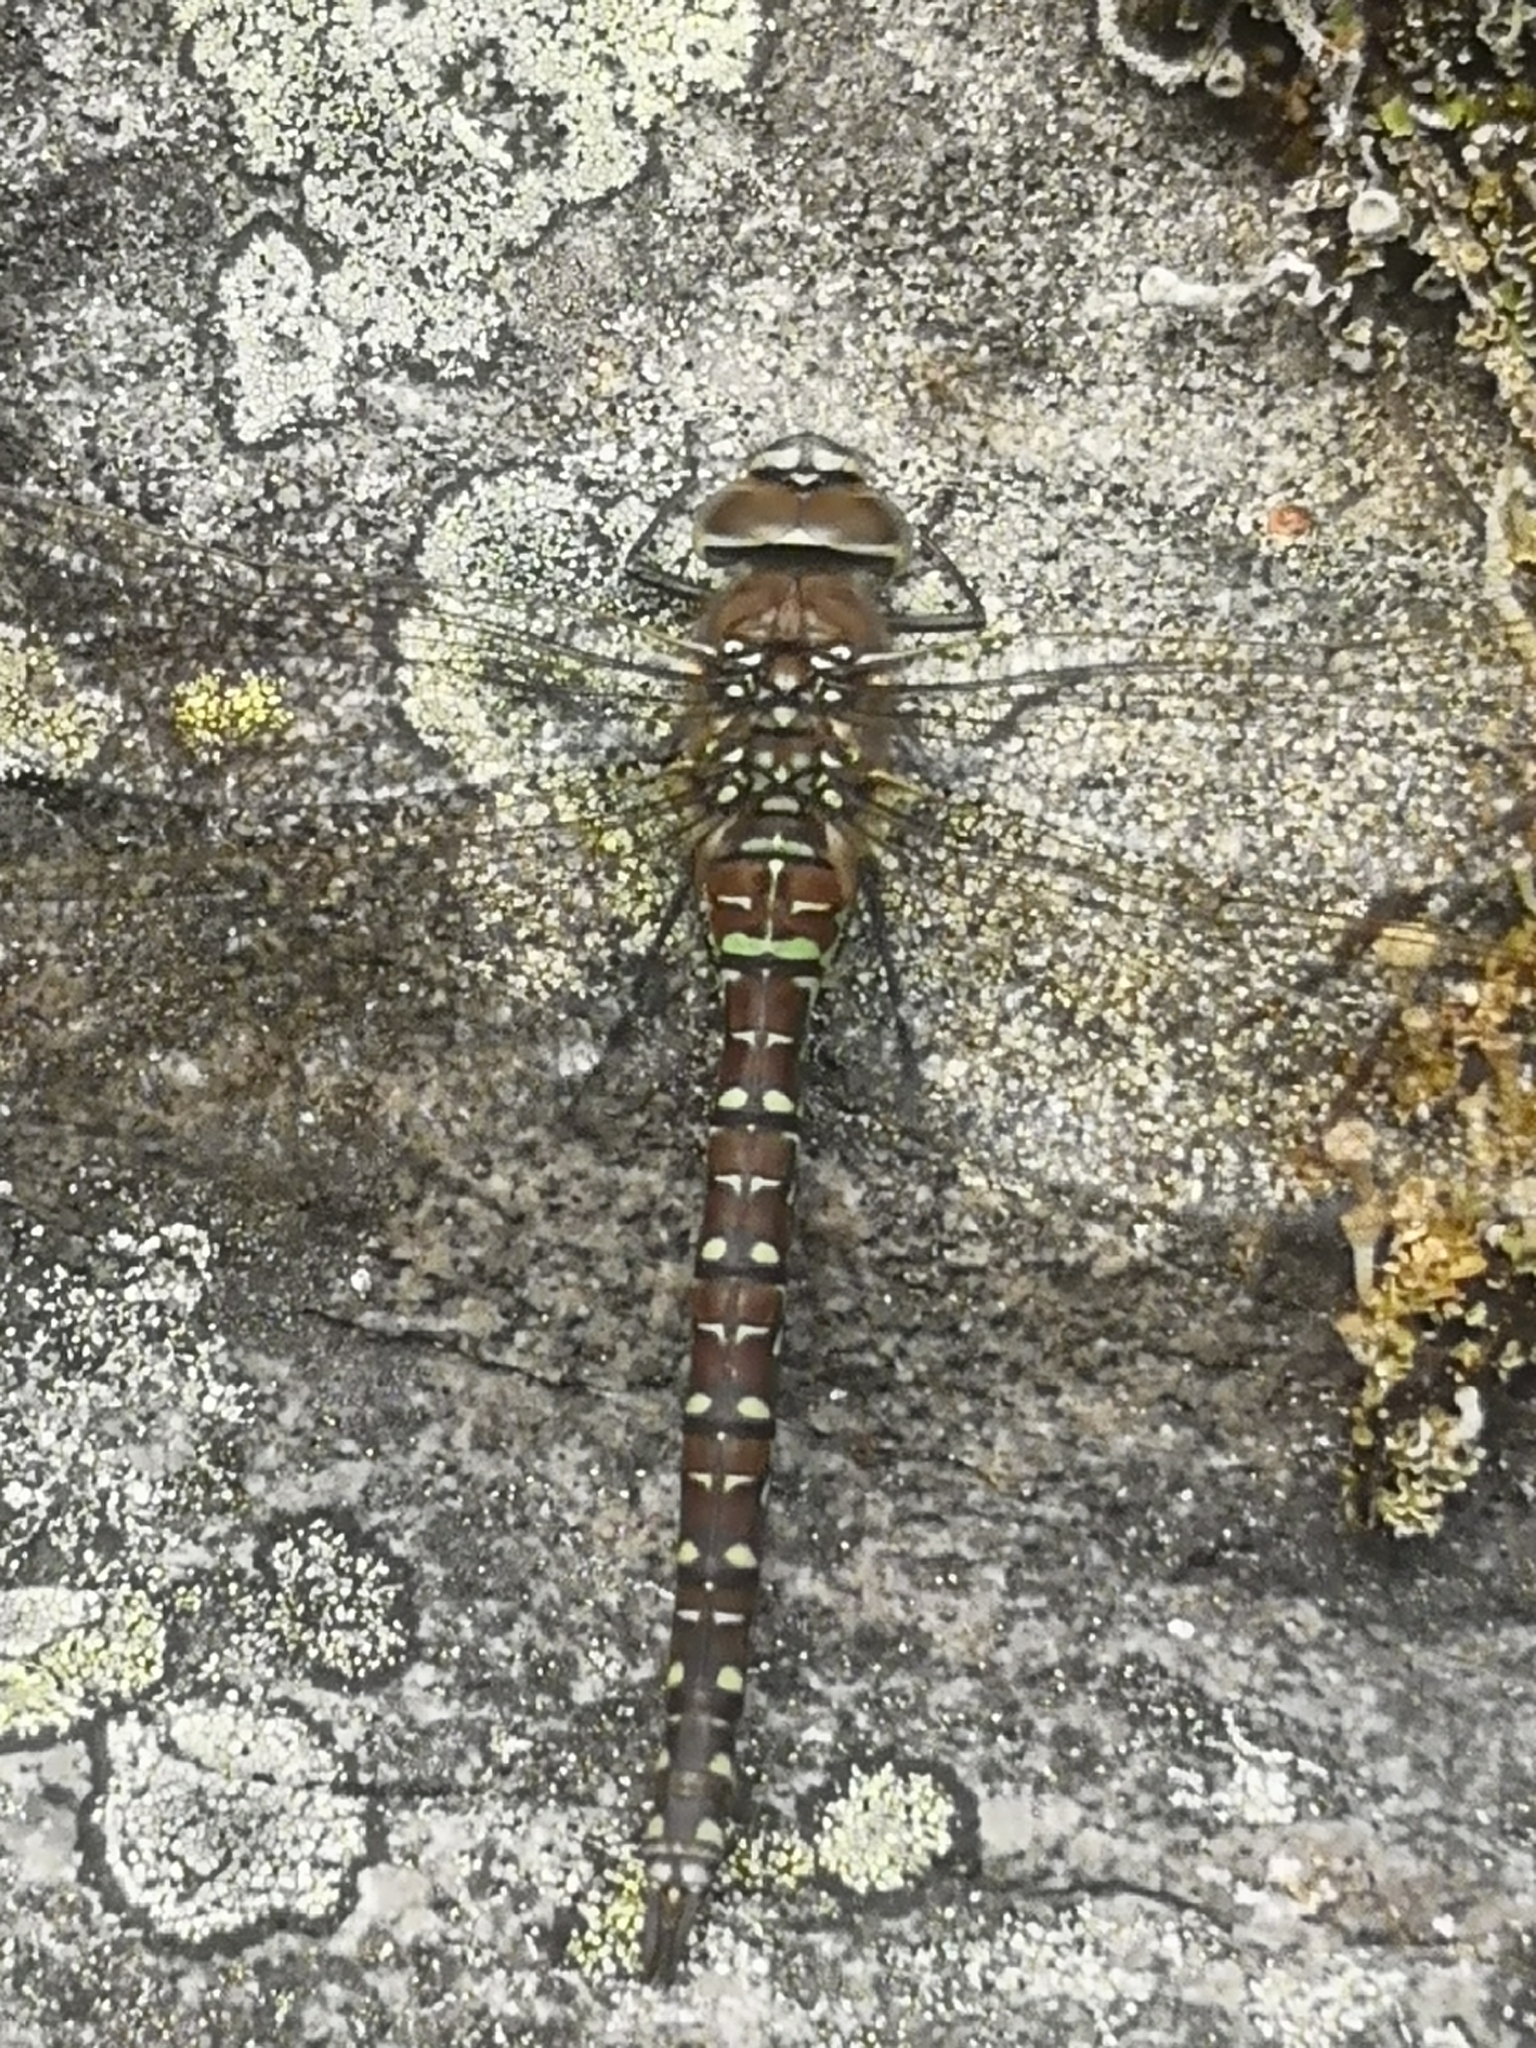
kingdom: Animalia
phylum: Arthropoda
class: Insecta
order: Odonata
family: Aeshnidae
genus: Aeshna
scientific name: Aeshna juncea
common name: Moorland hawker
